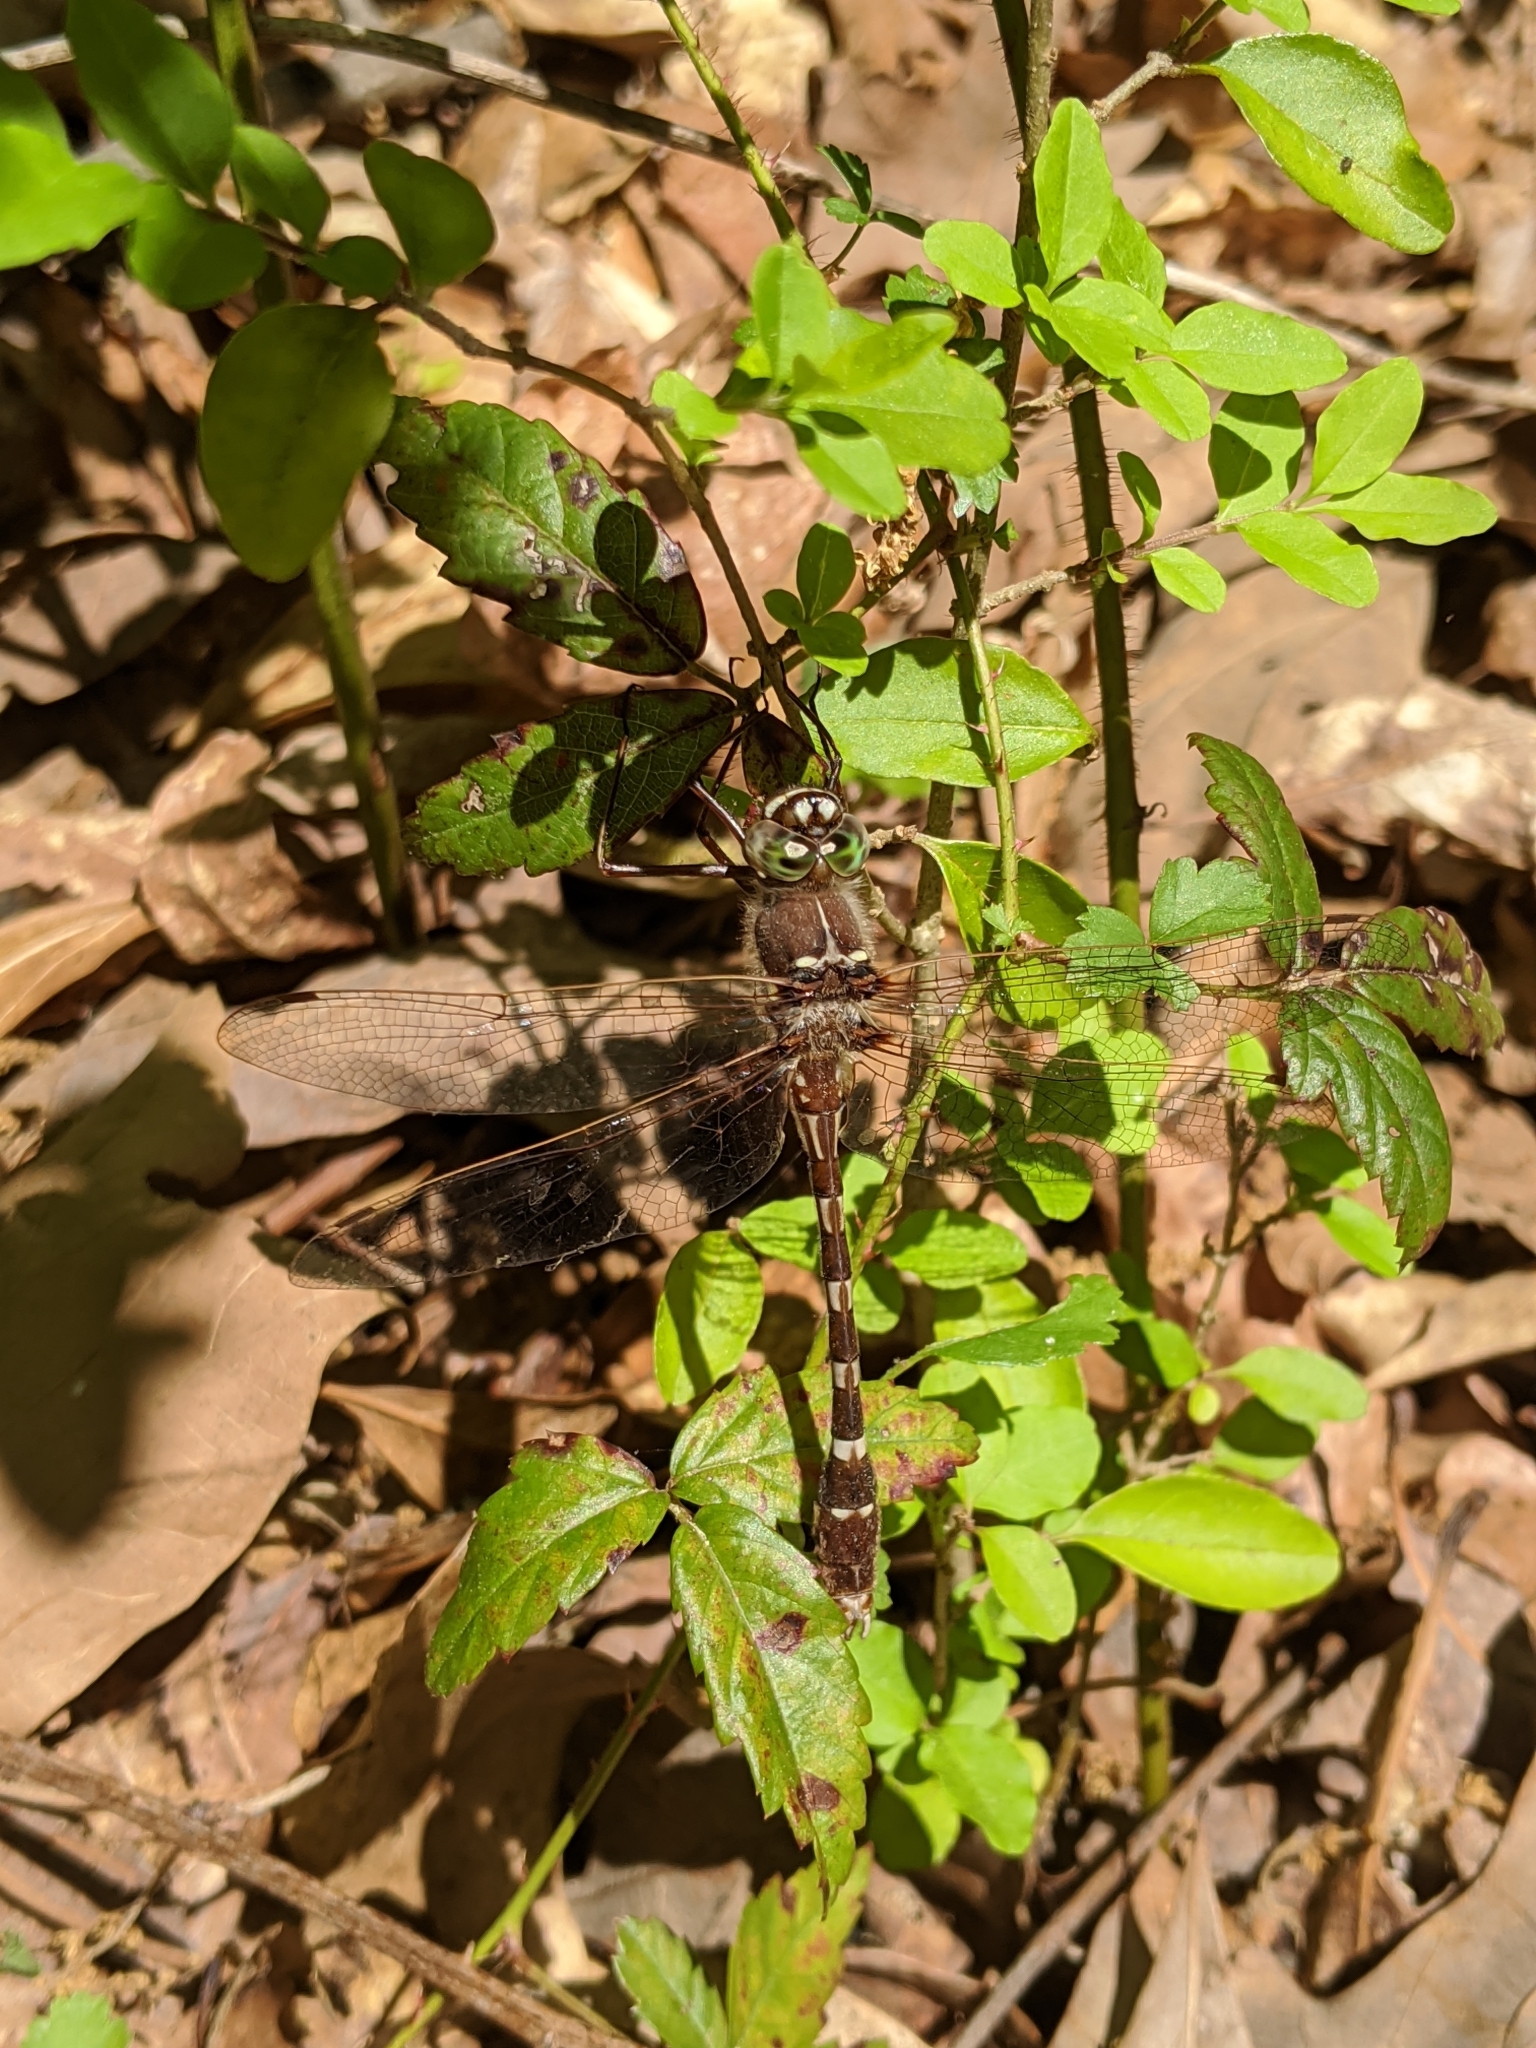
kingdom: Animalia
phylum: Arthropoda
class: Insecta
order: Odonata
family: Macromiidae
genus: Didymops
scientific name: Didymops transversa
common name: Stream cruiser
